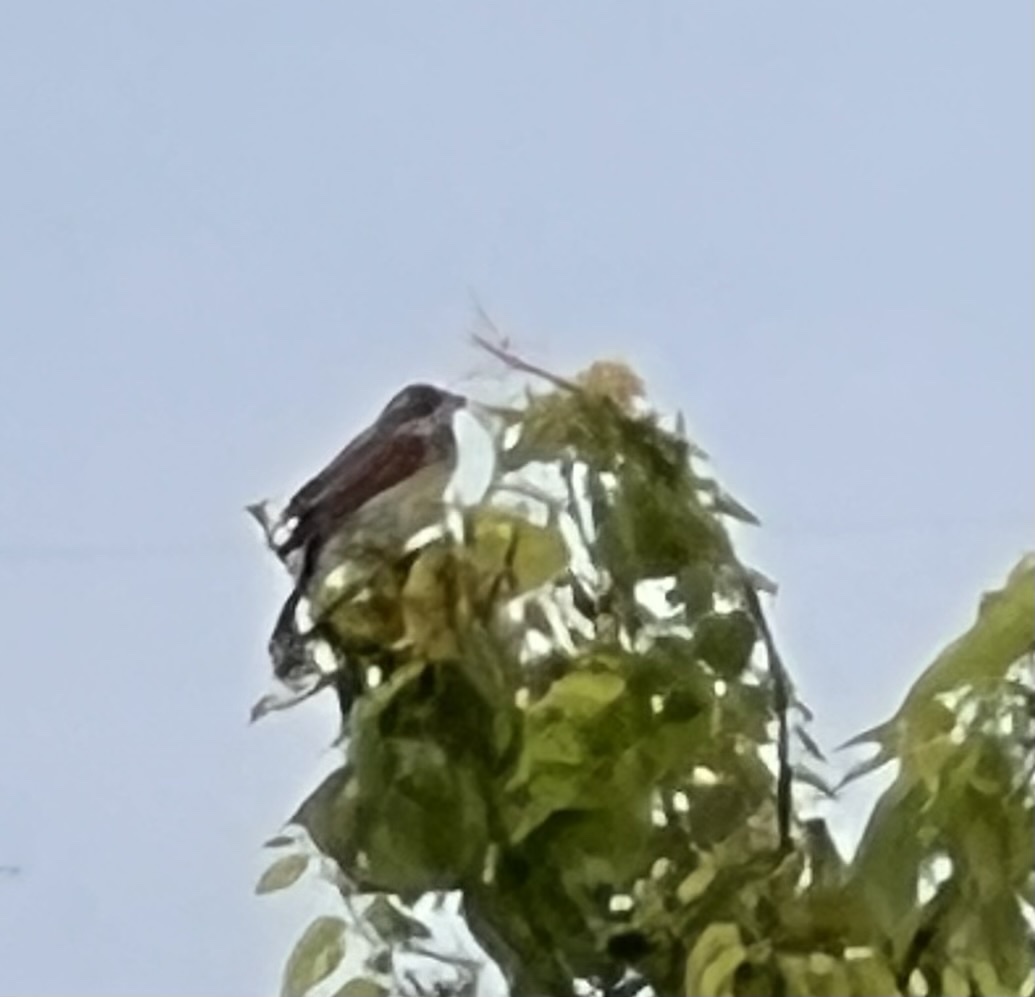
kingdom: Animalia
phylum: Chordata
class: Aves
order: Passeriformes
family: Cardinalidae
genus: Spiza
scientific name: Spiza americana
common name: Dickcissel
